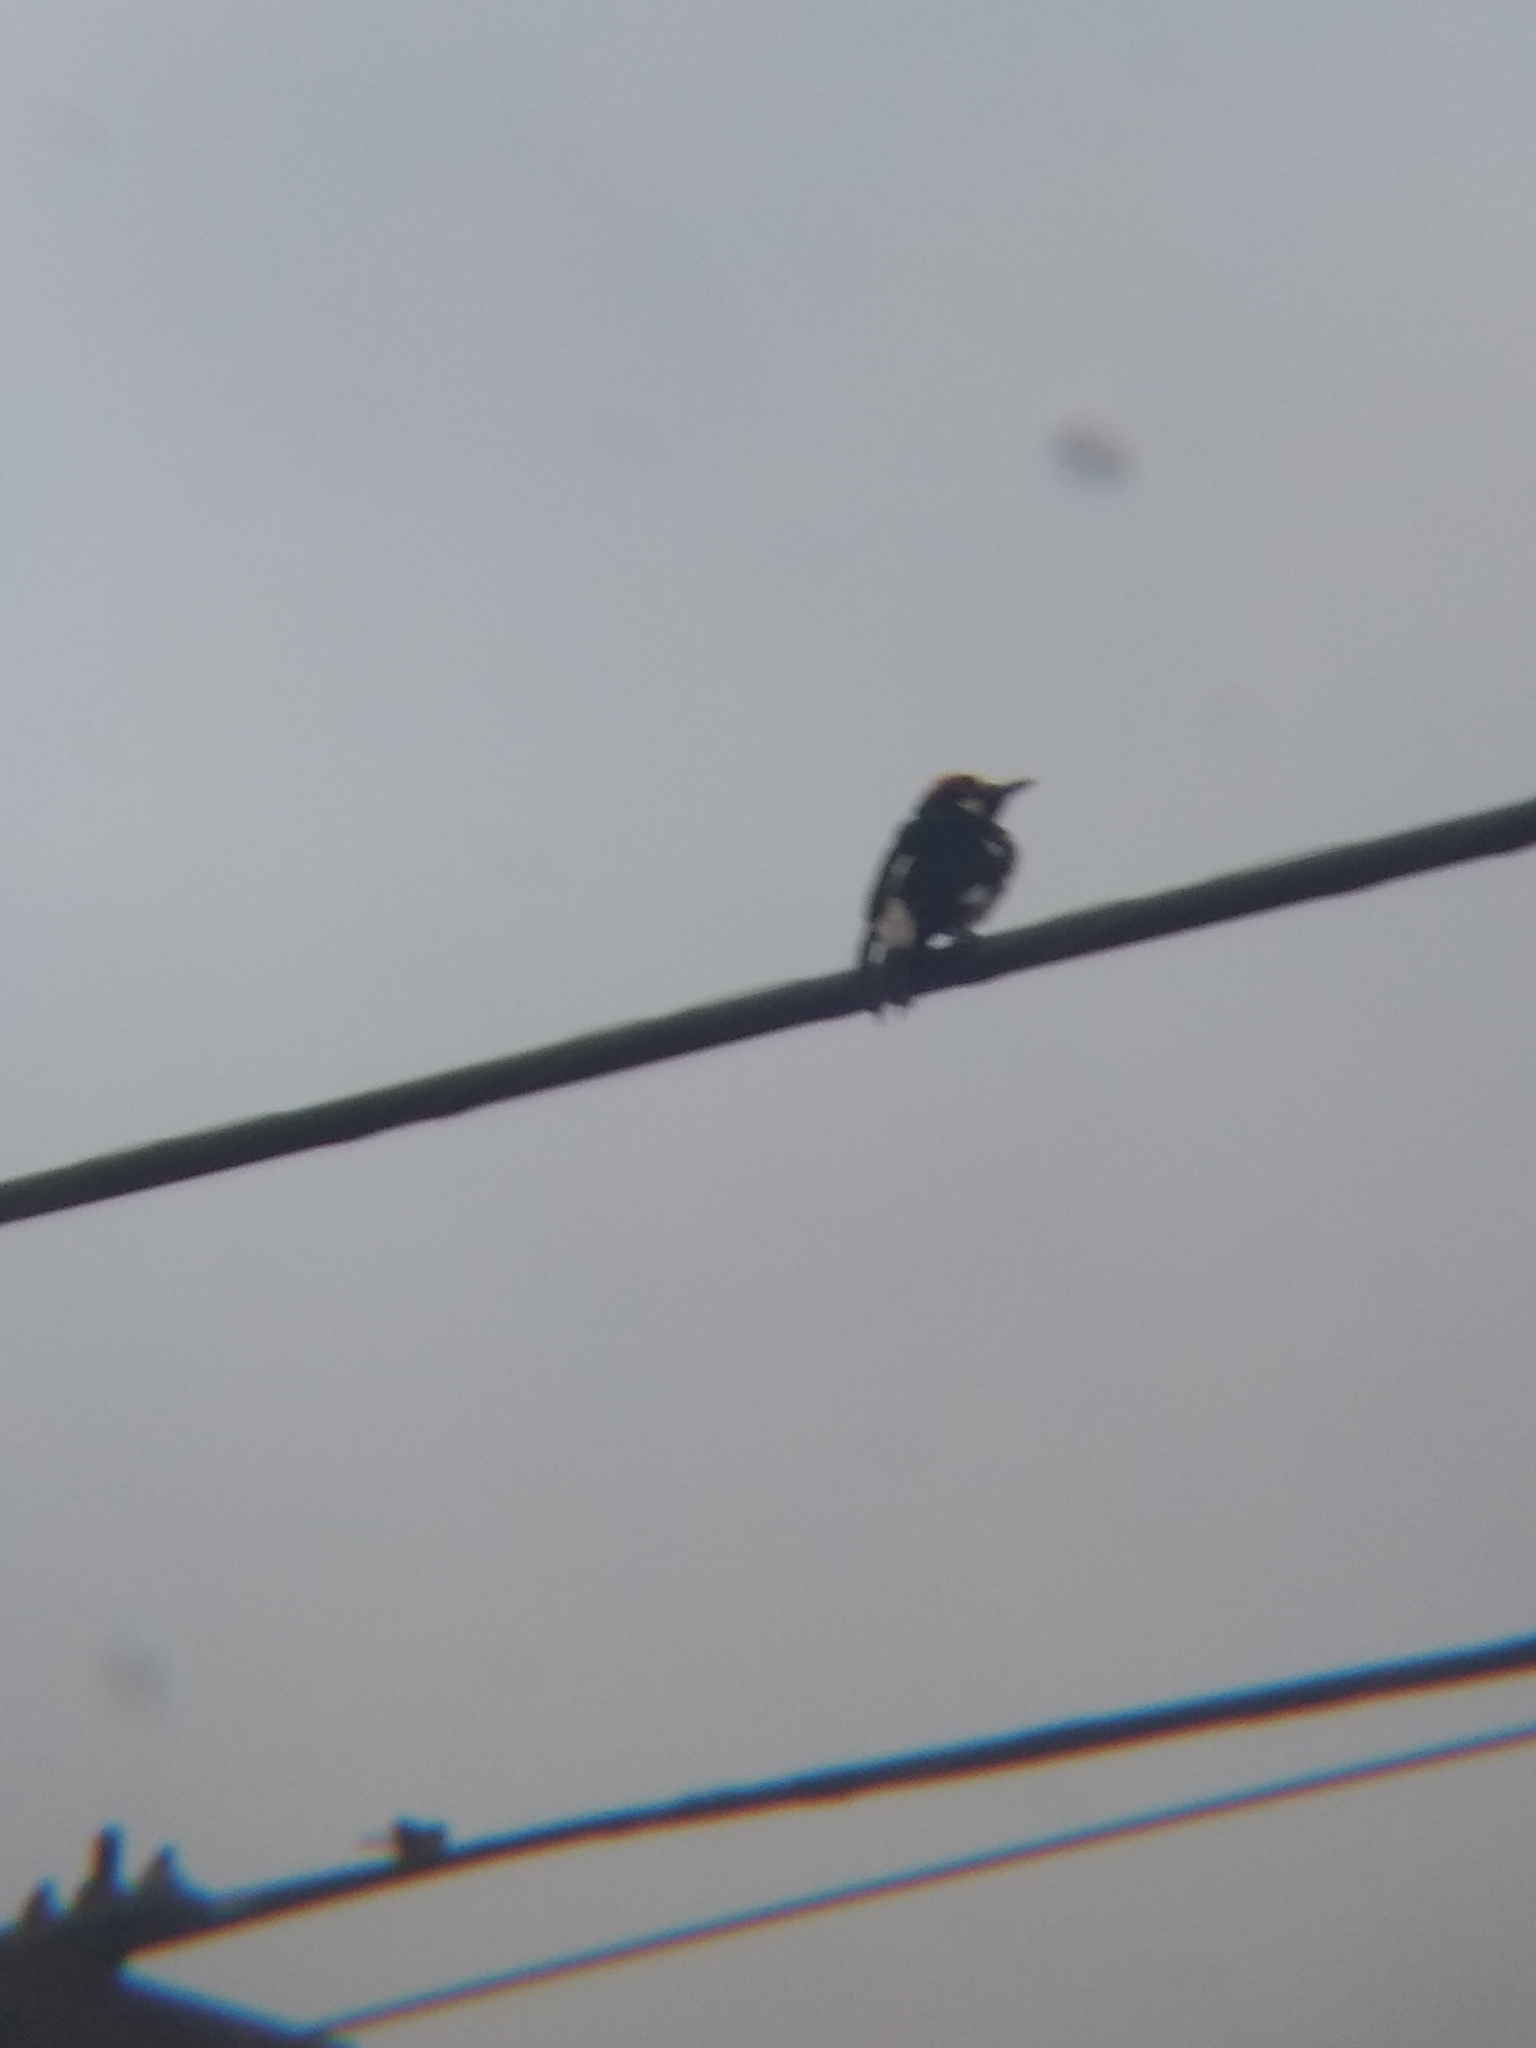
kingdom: Animalia
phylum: Chordata
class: Aves
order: Piciformes
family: Picidae
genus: Melanerpes
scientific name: Melanerpes formicivorus
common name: Acorn woodpecker
